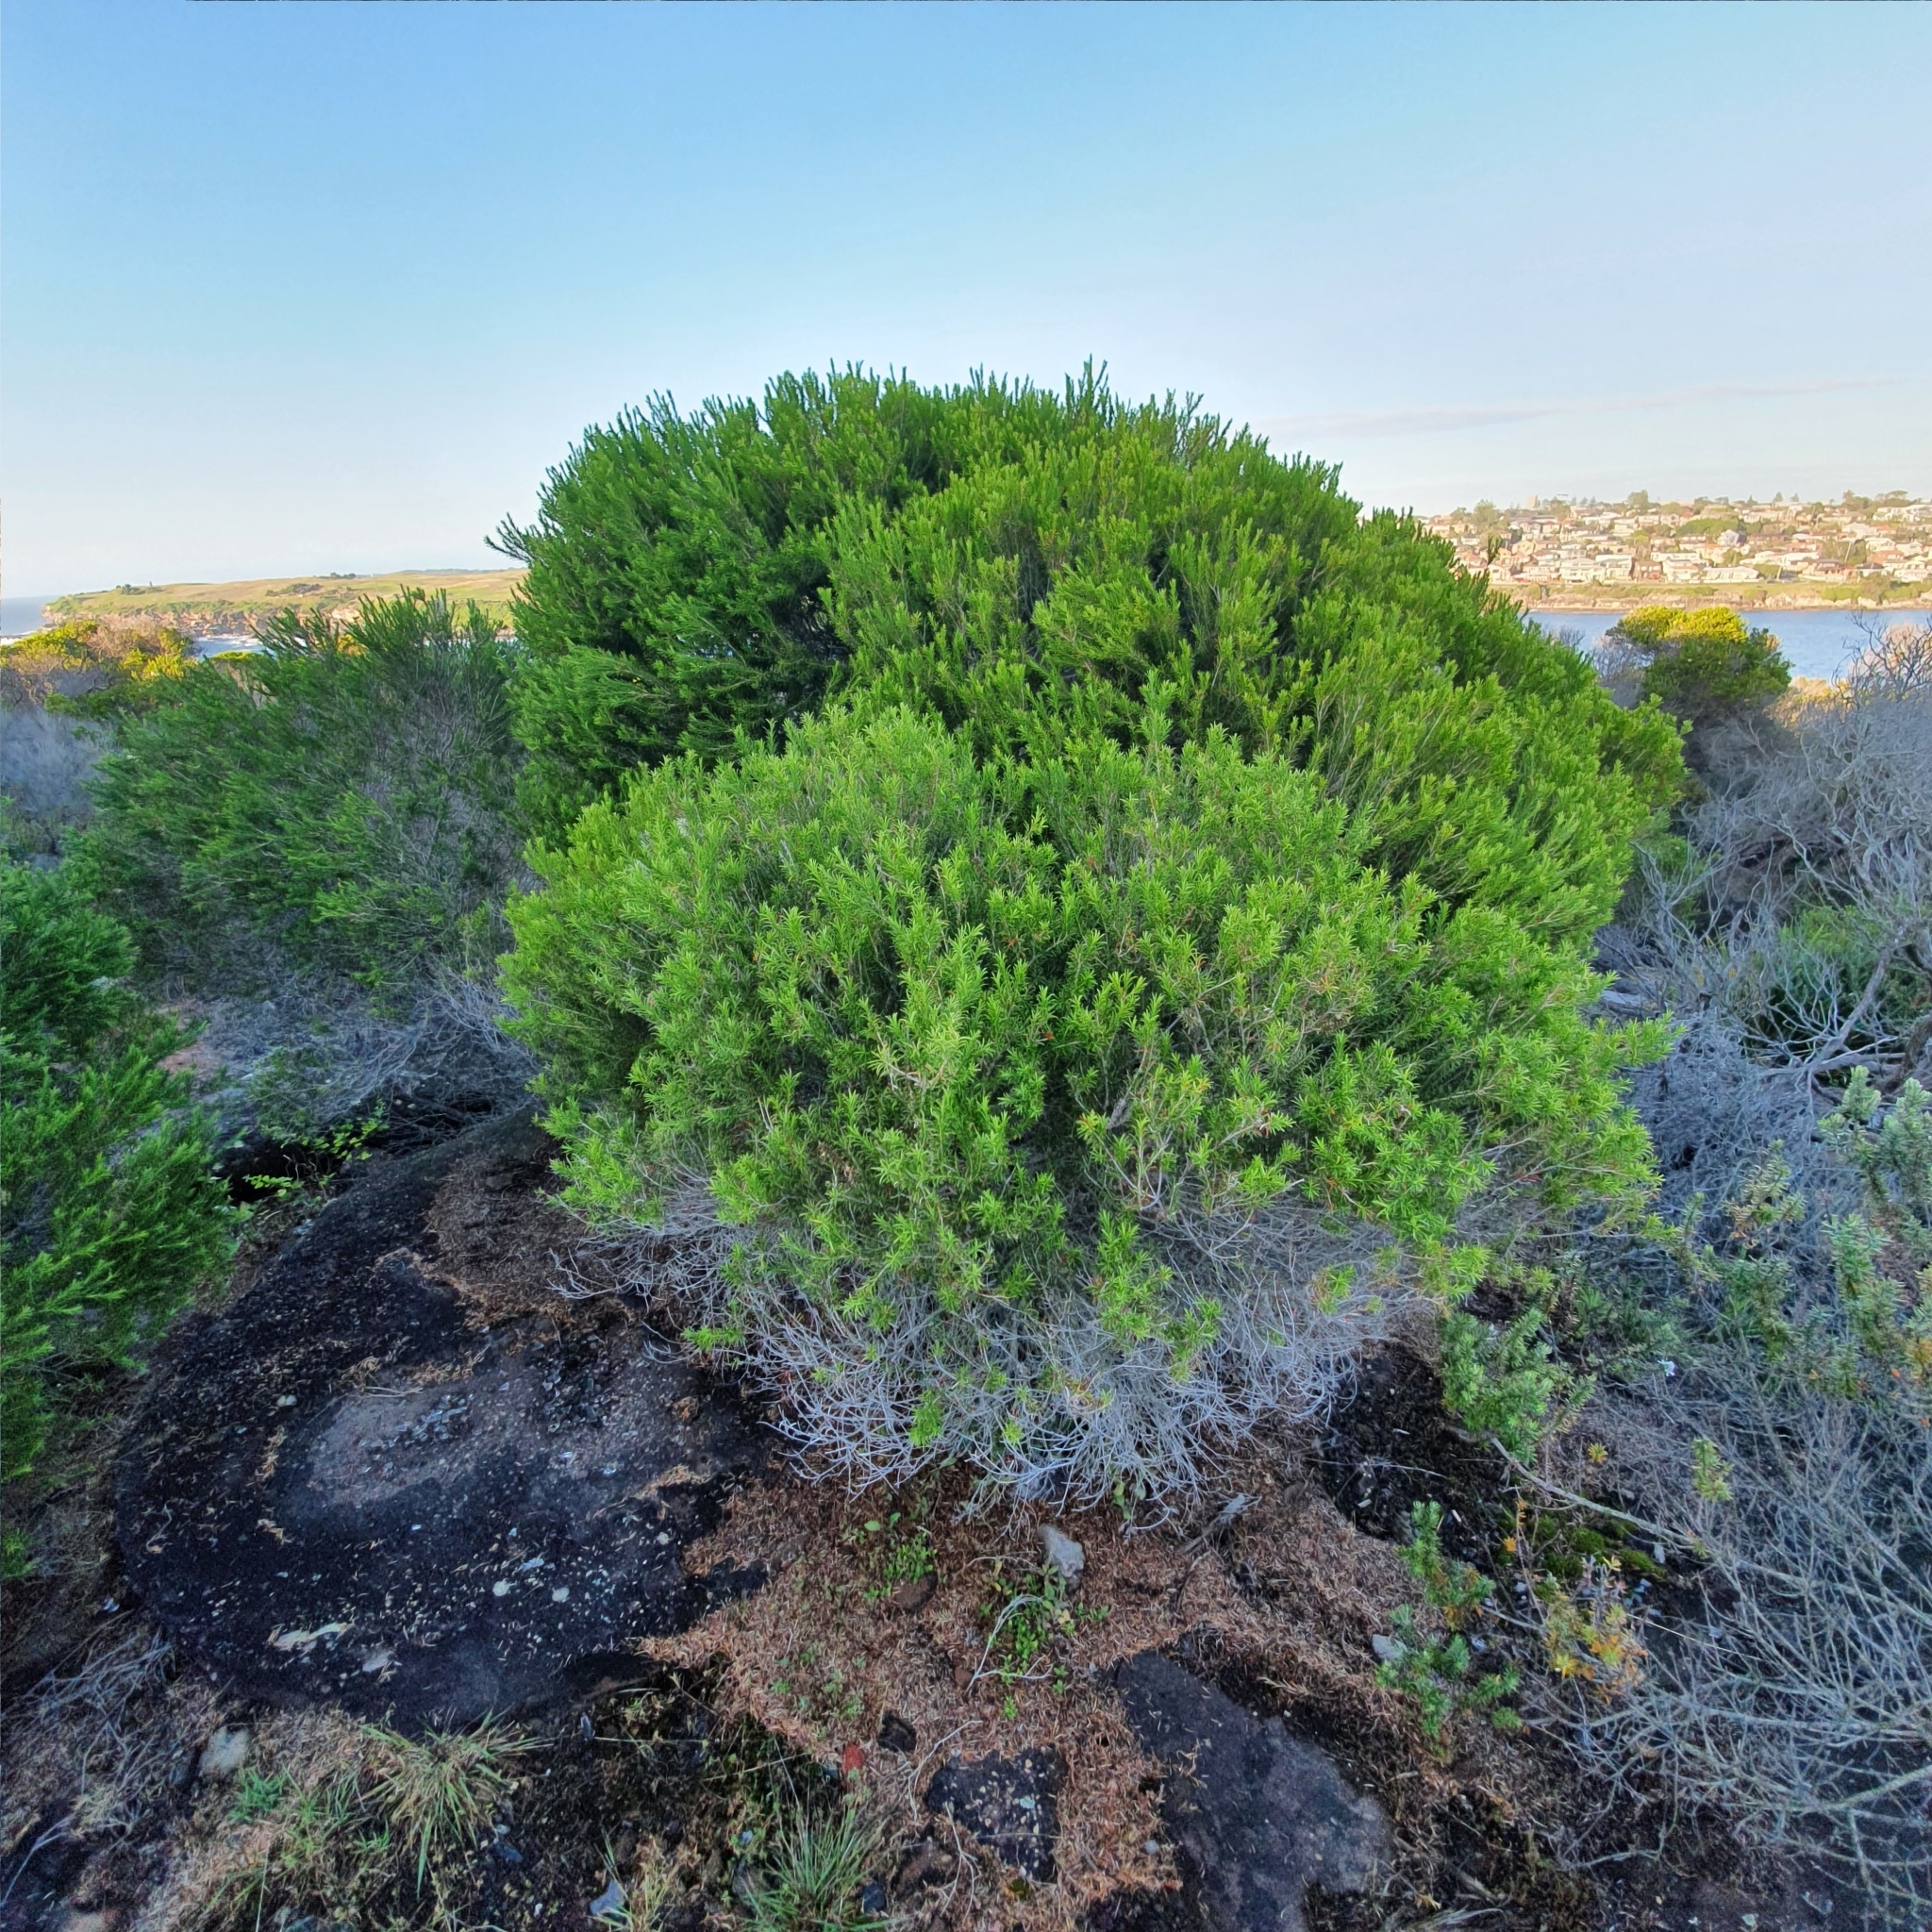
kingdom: Plantae
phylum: Tracheophyta
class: Magnoliopsida
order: Myrtales
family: Myrtaceae
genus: Melaleuca
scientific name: Melaleuca armillaris
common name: Bracelet honey myrtle
